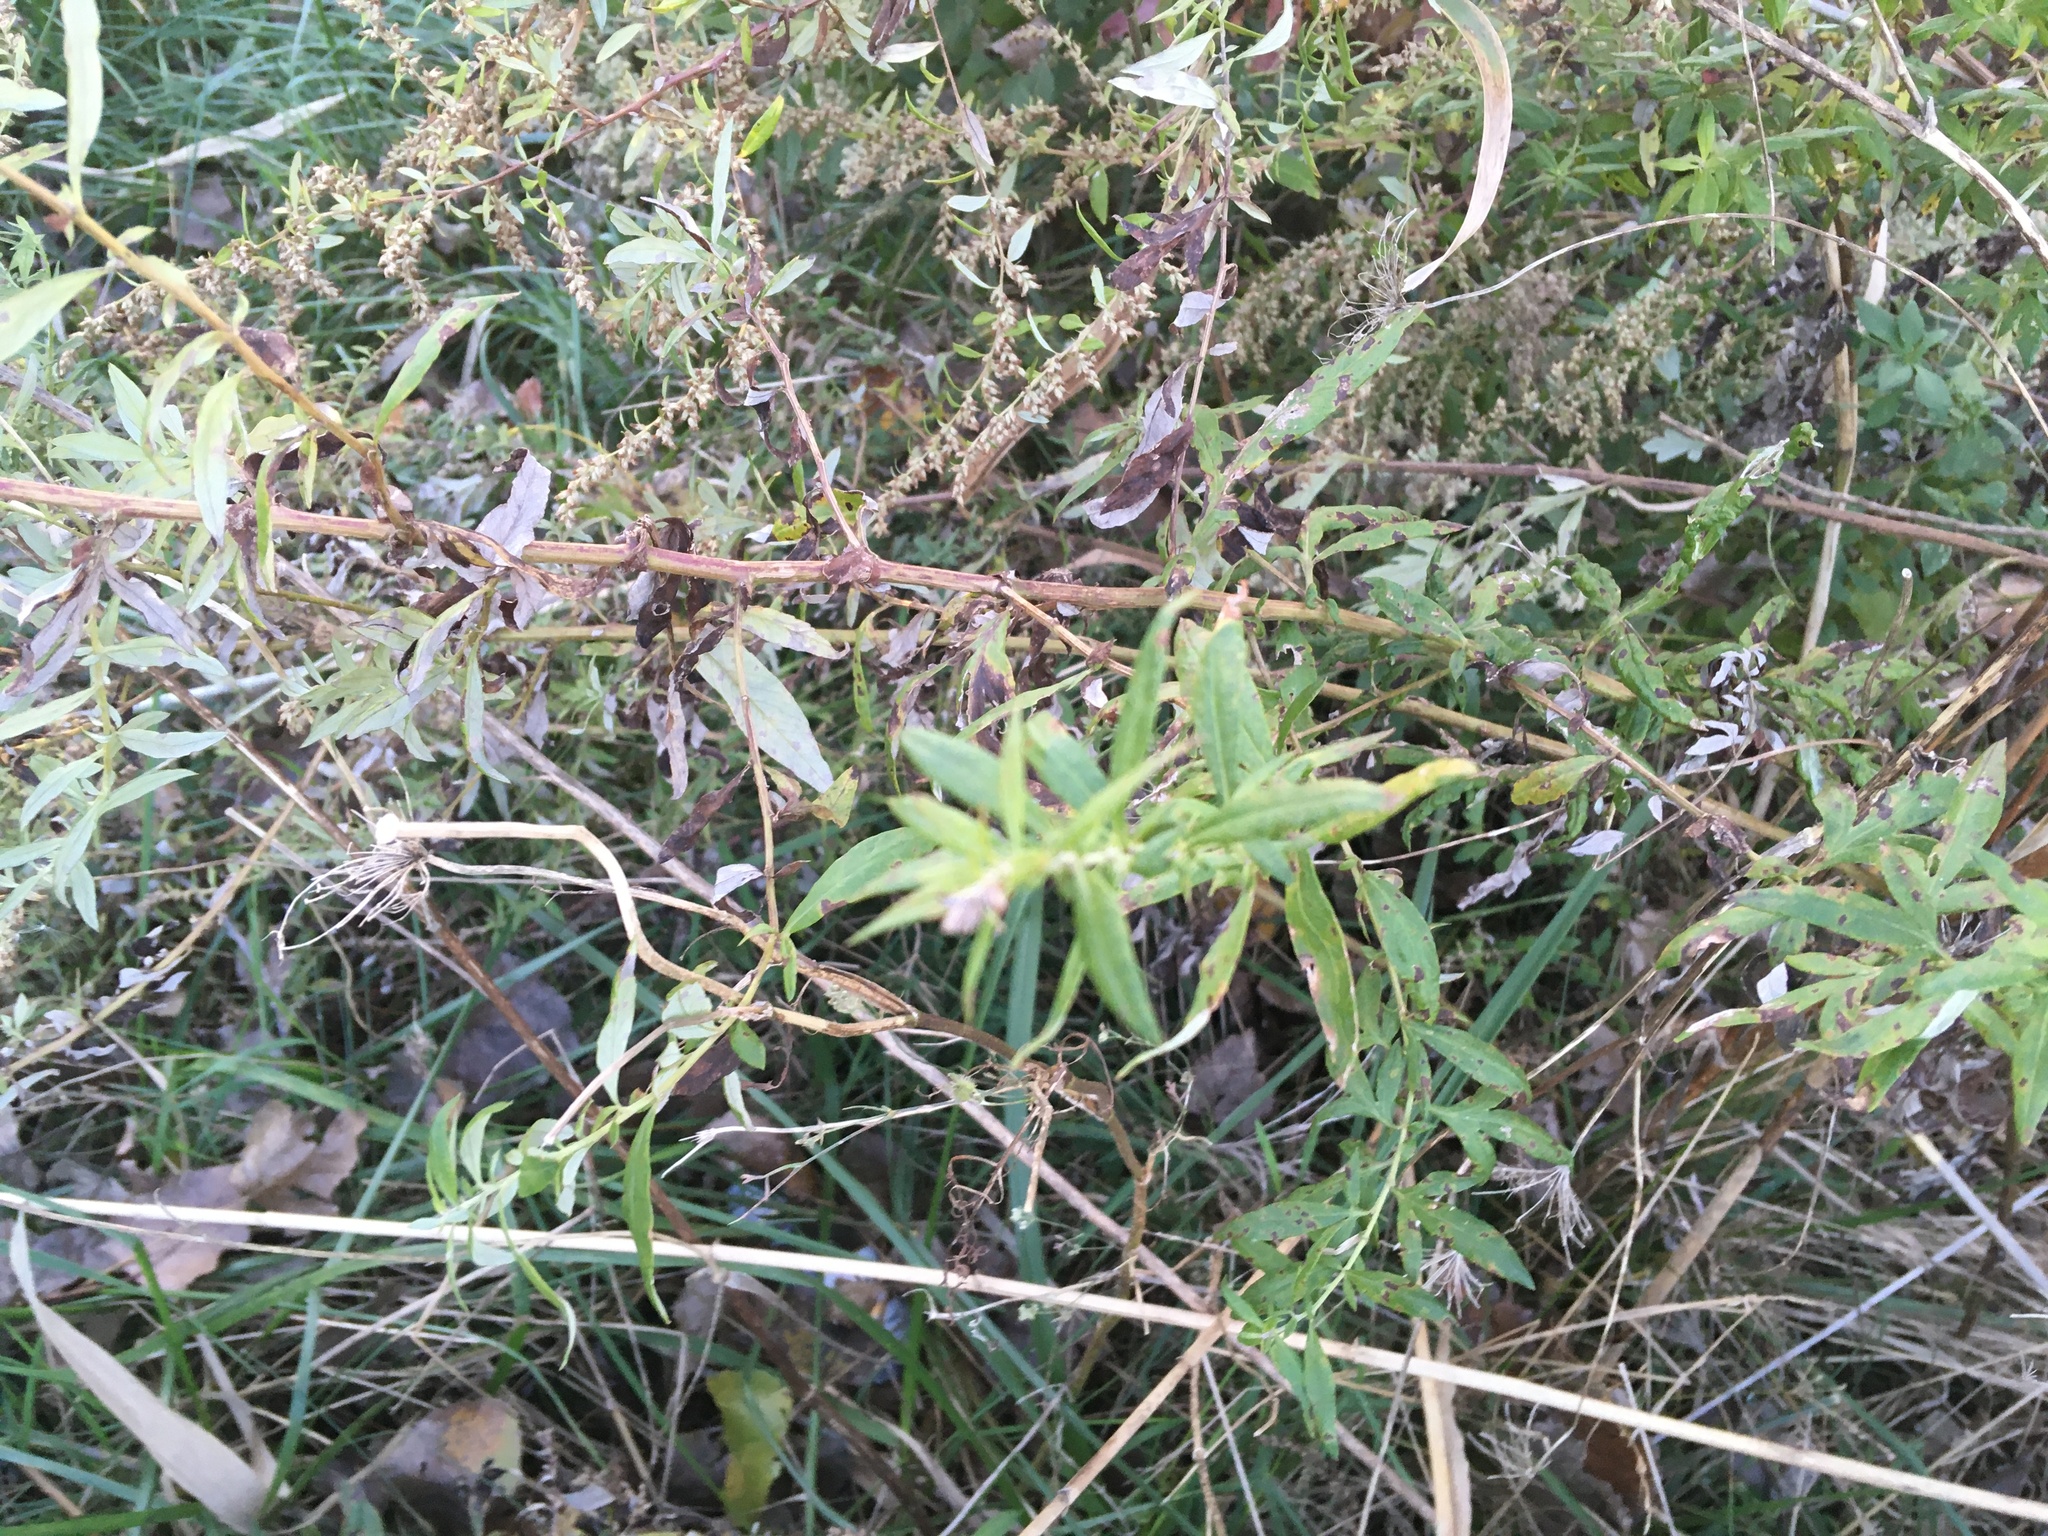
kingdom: Plantae
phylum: Tracheophyta
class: Magnoliopsida
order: Asterales
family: Asteraceae
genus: Artemisia
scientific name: Artemisia vulgaris
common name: Mugwort
